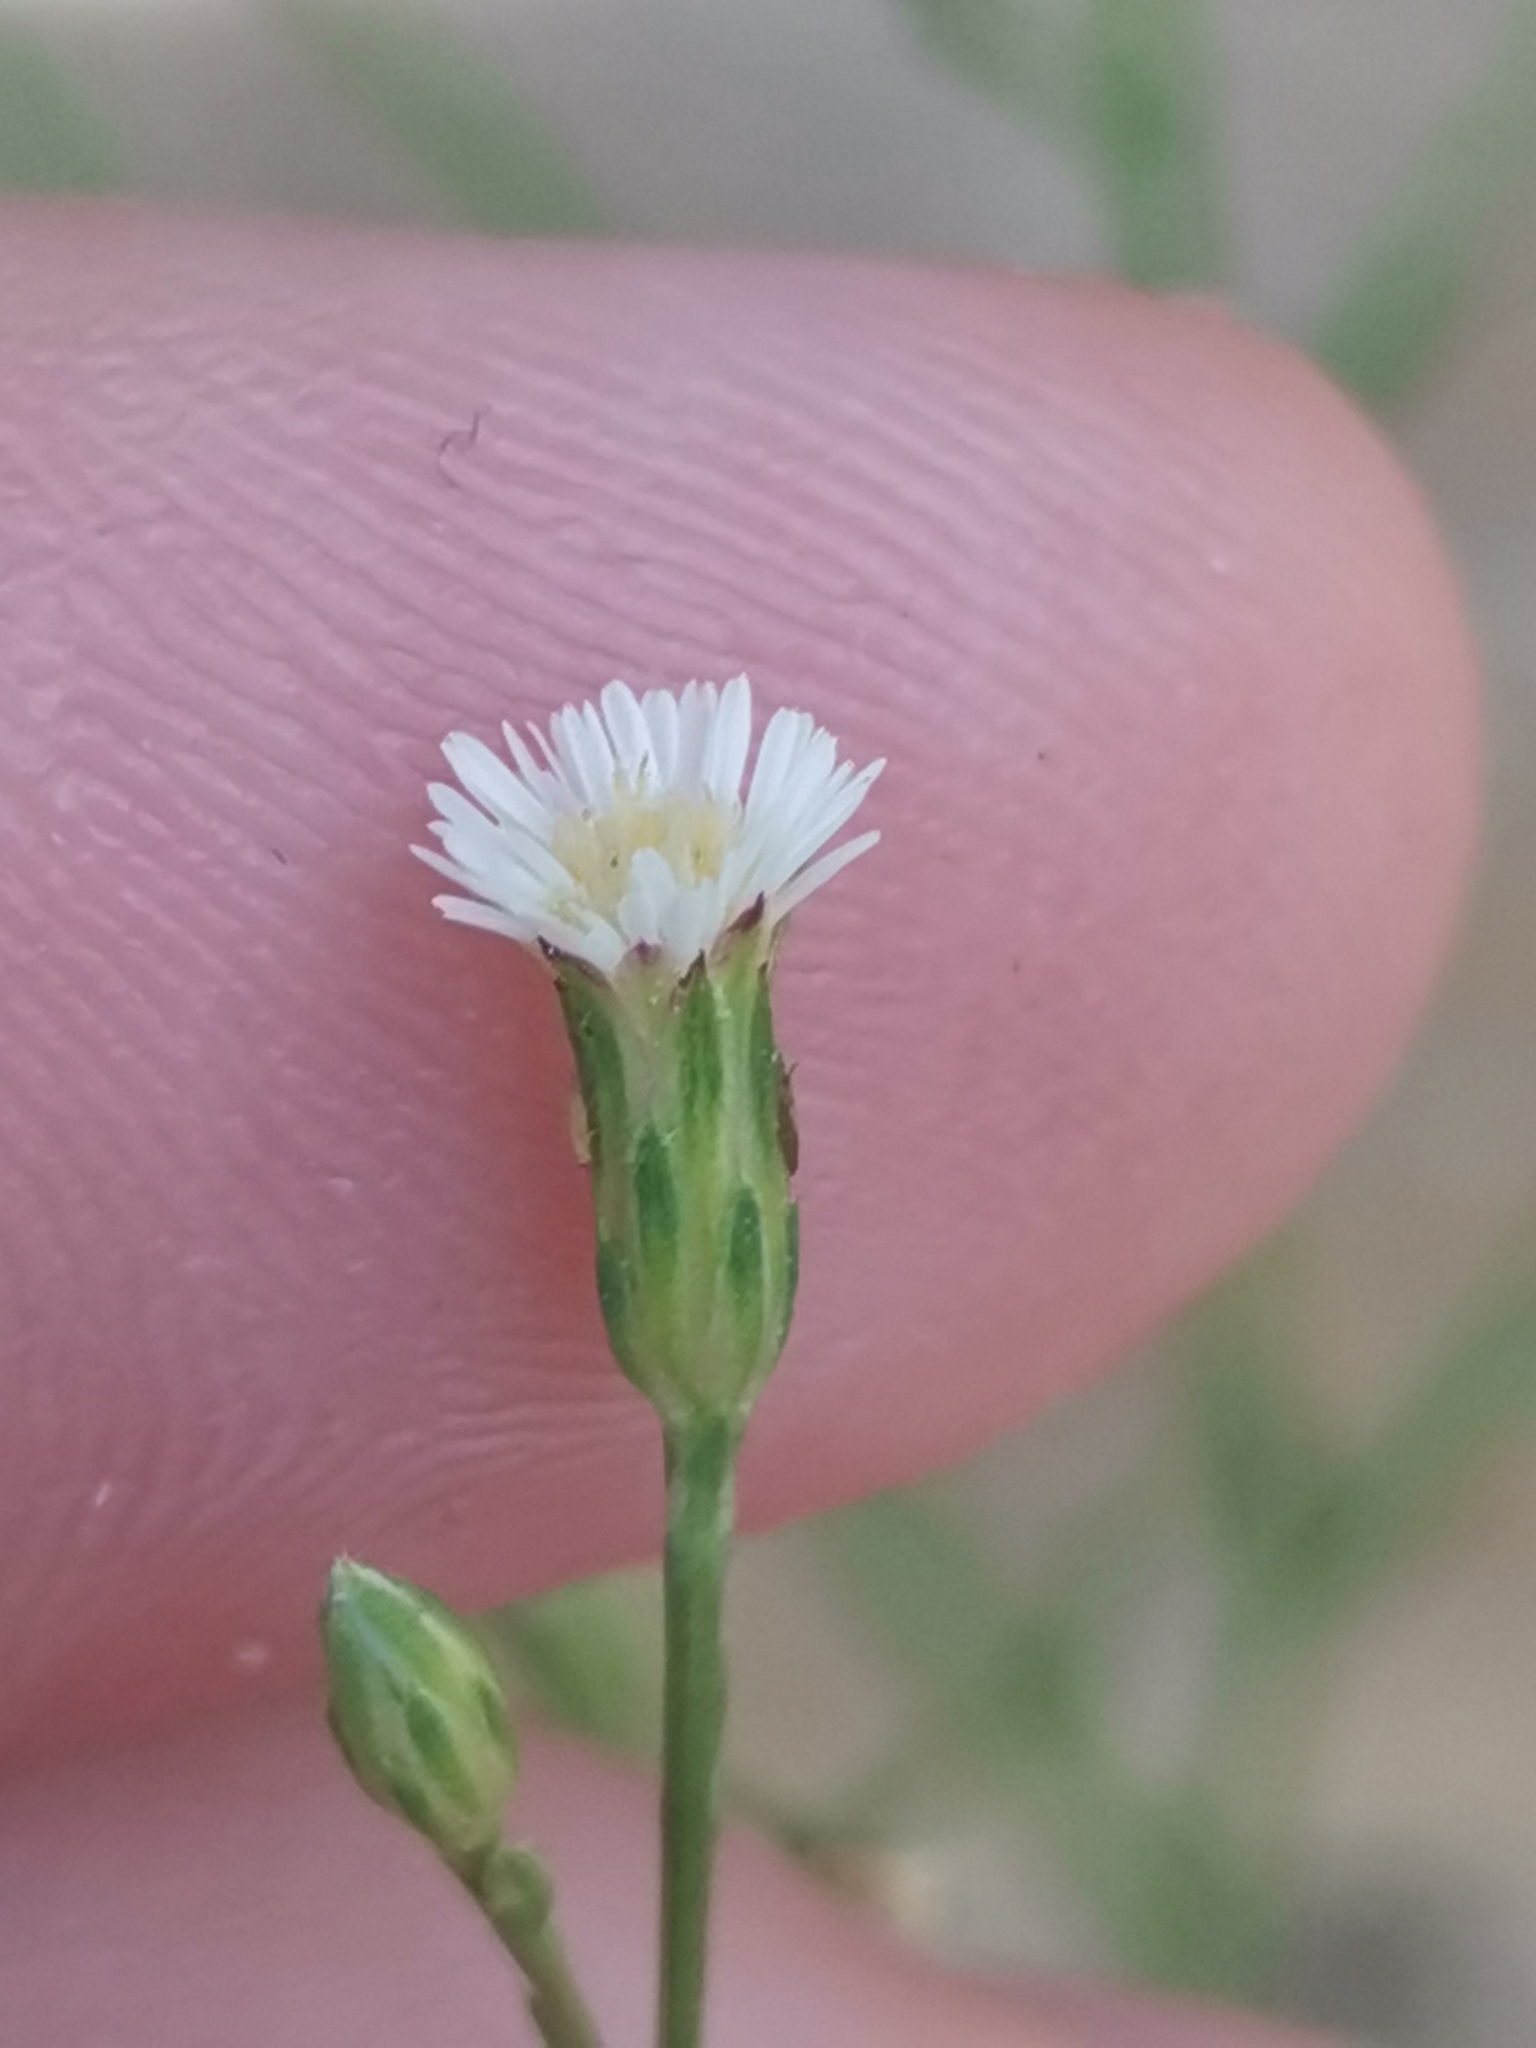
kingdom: Plantae
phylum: Tracheophyta
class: Magnoliopsida
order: Asterales
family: Asteraceae
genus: Symphyotrichum
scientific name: Symphyotrichum squamatum
